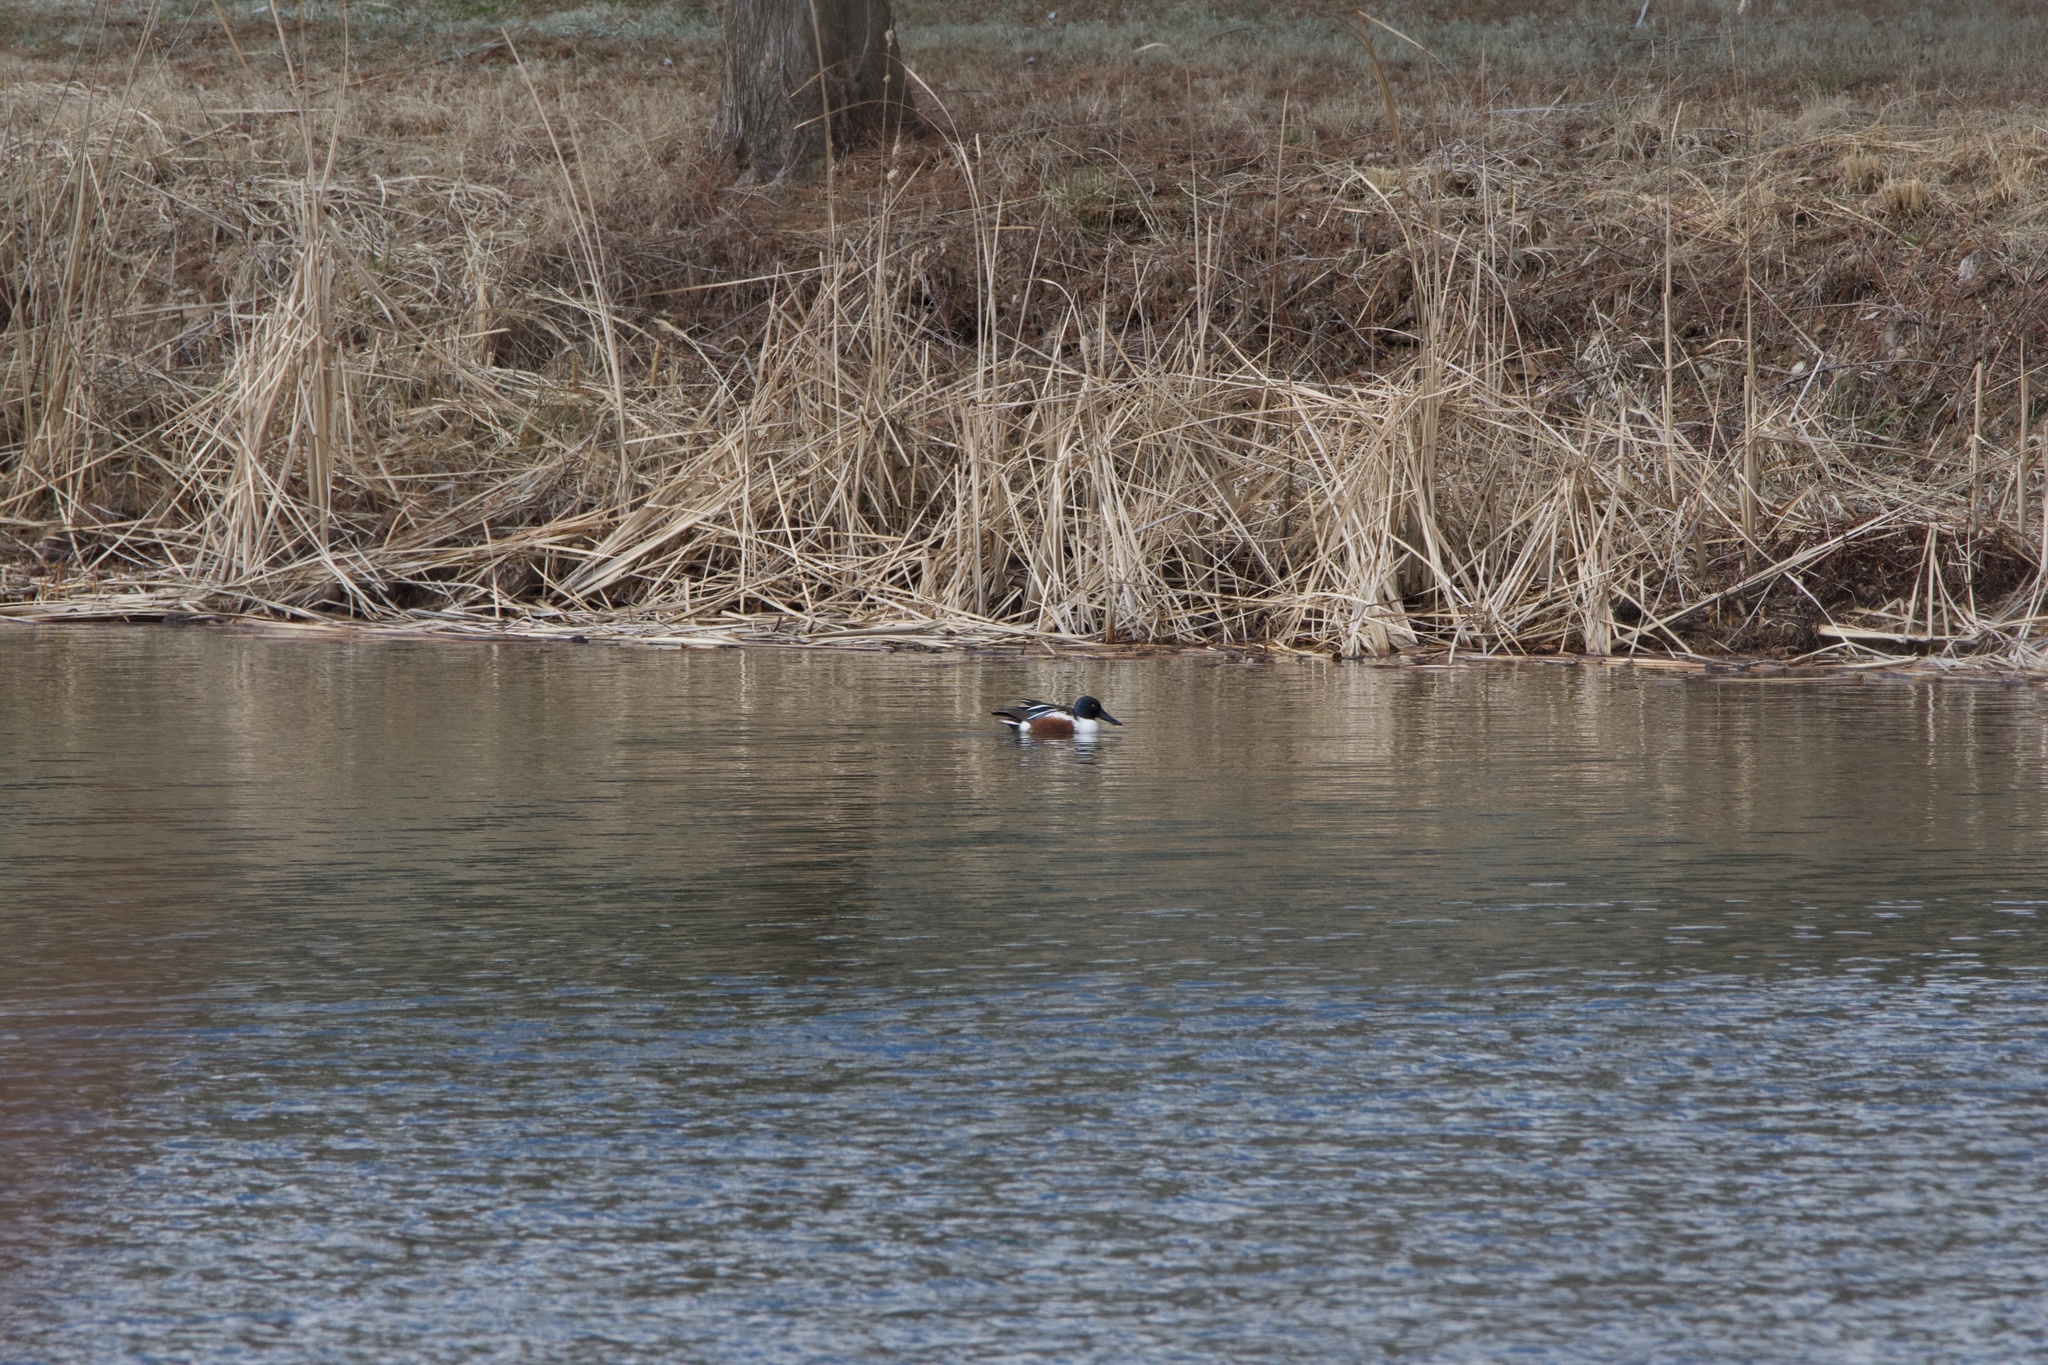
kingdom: Animalia
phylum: Chordata
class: Aves
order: Anseriformes
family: Anatidae
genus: Spatula
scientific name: Spatula clypeata
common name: Northern shoveler
